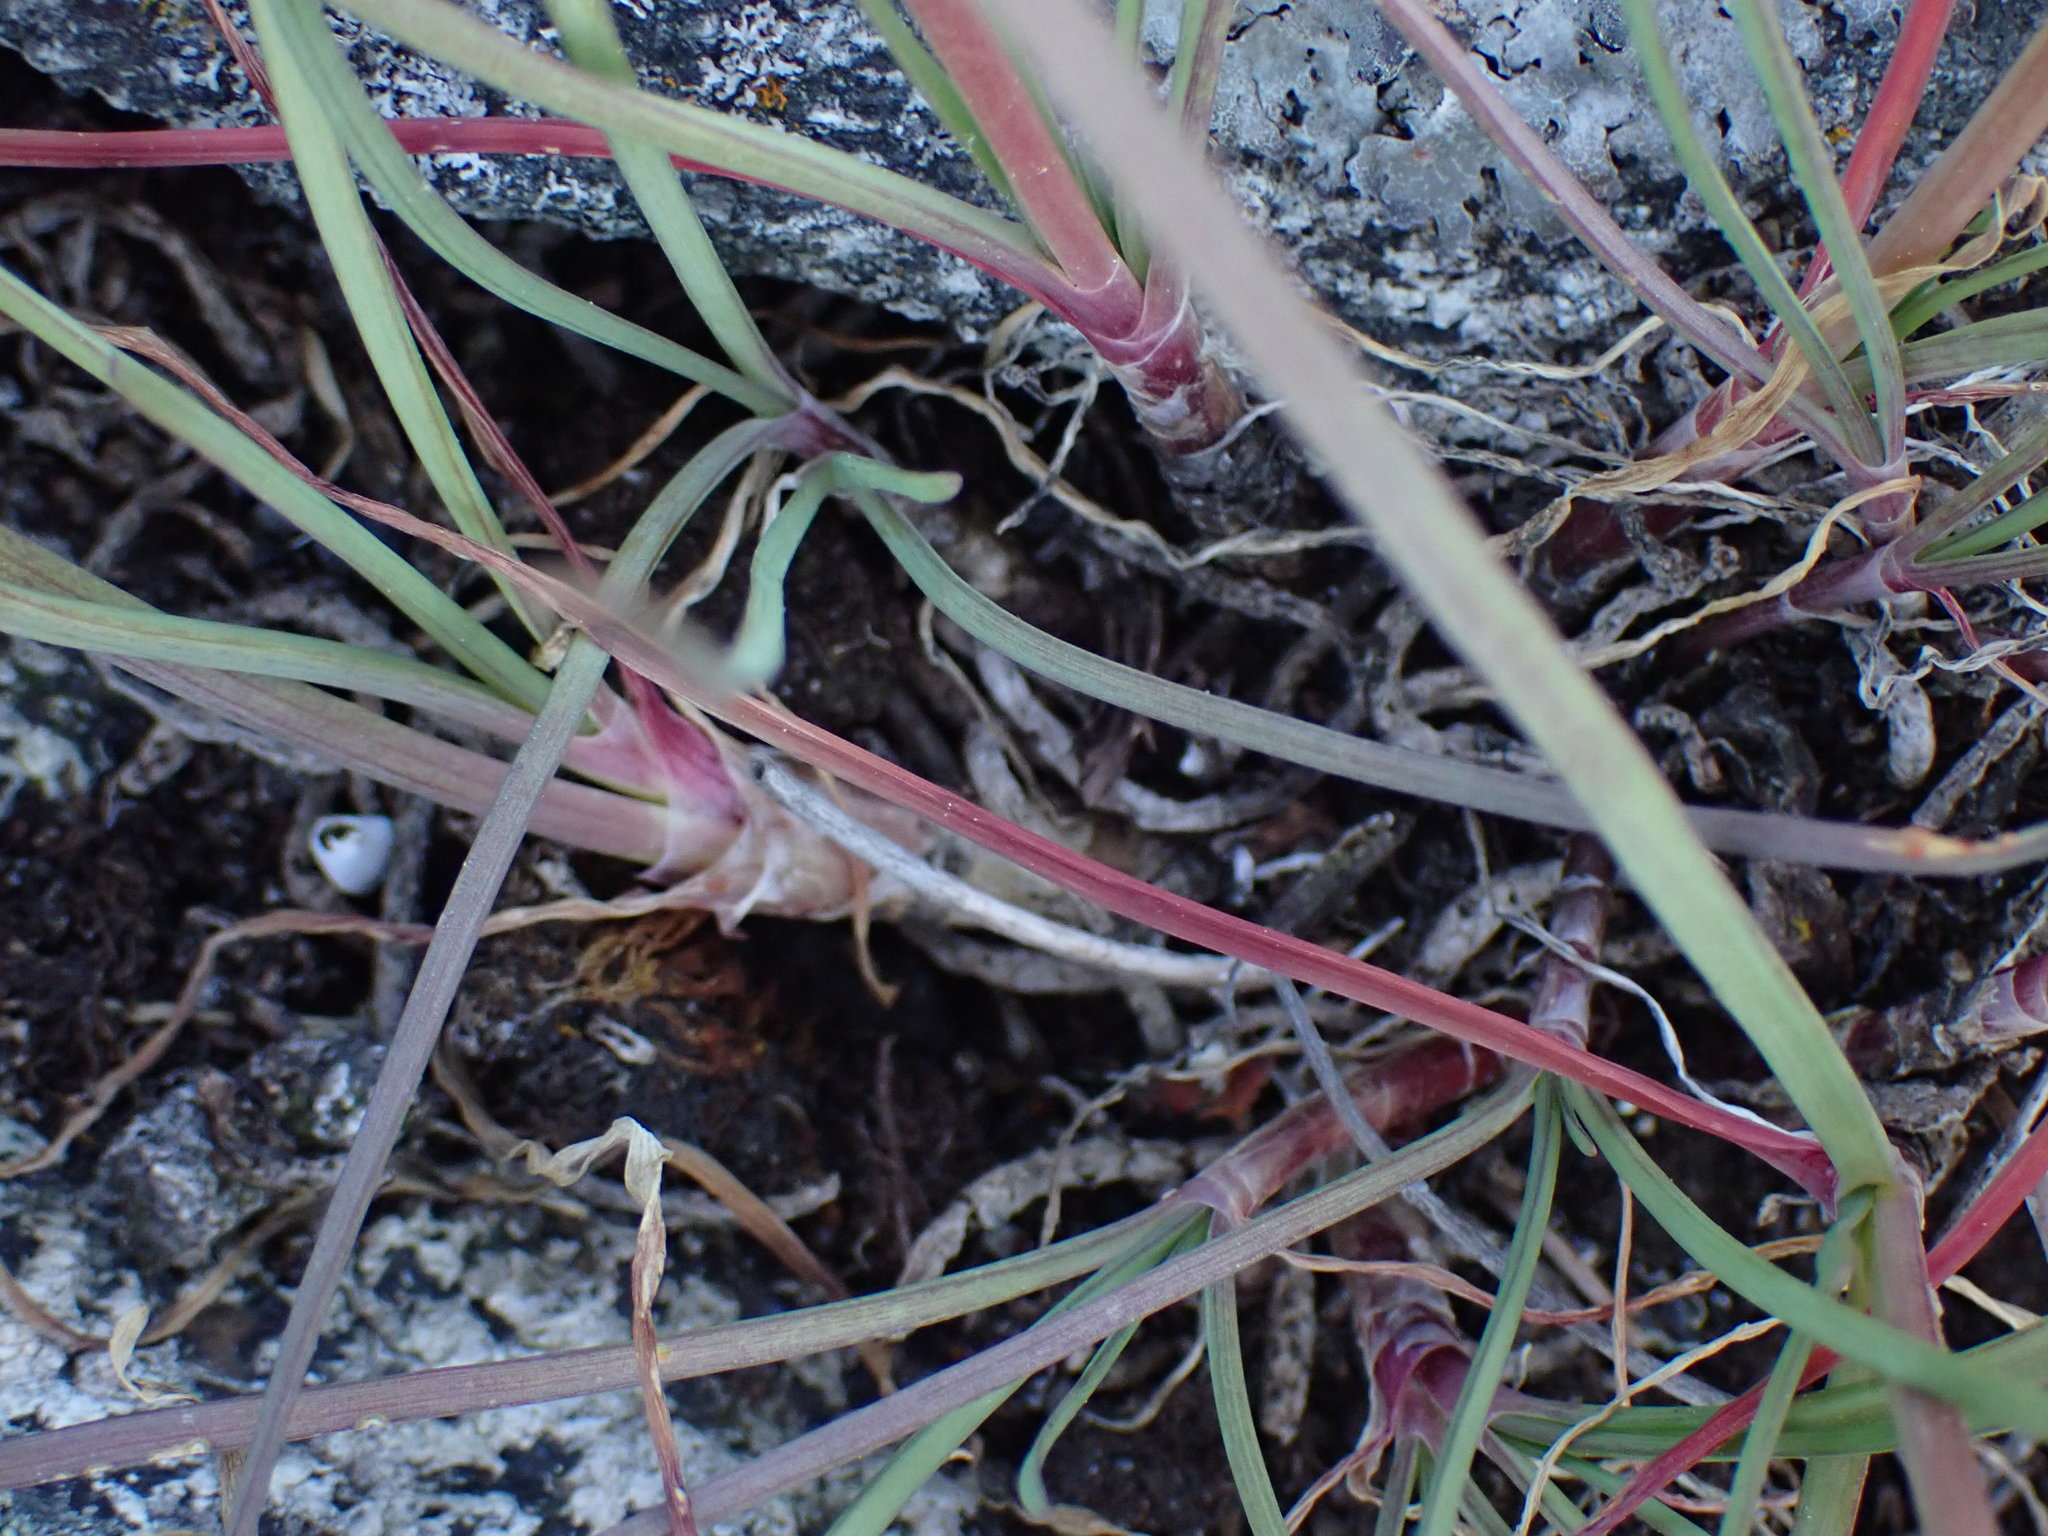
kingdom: Plantae
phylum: Tracheophyta
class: Liliopsida
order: Asparagales
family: Amaryllidaceae
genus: Allium
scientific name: Allium cernuum
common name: Nodding onion
